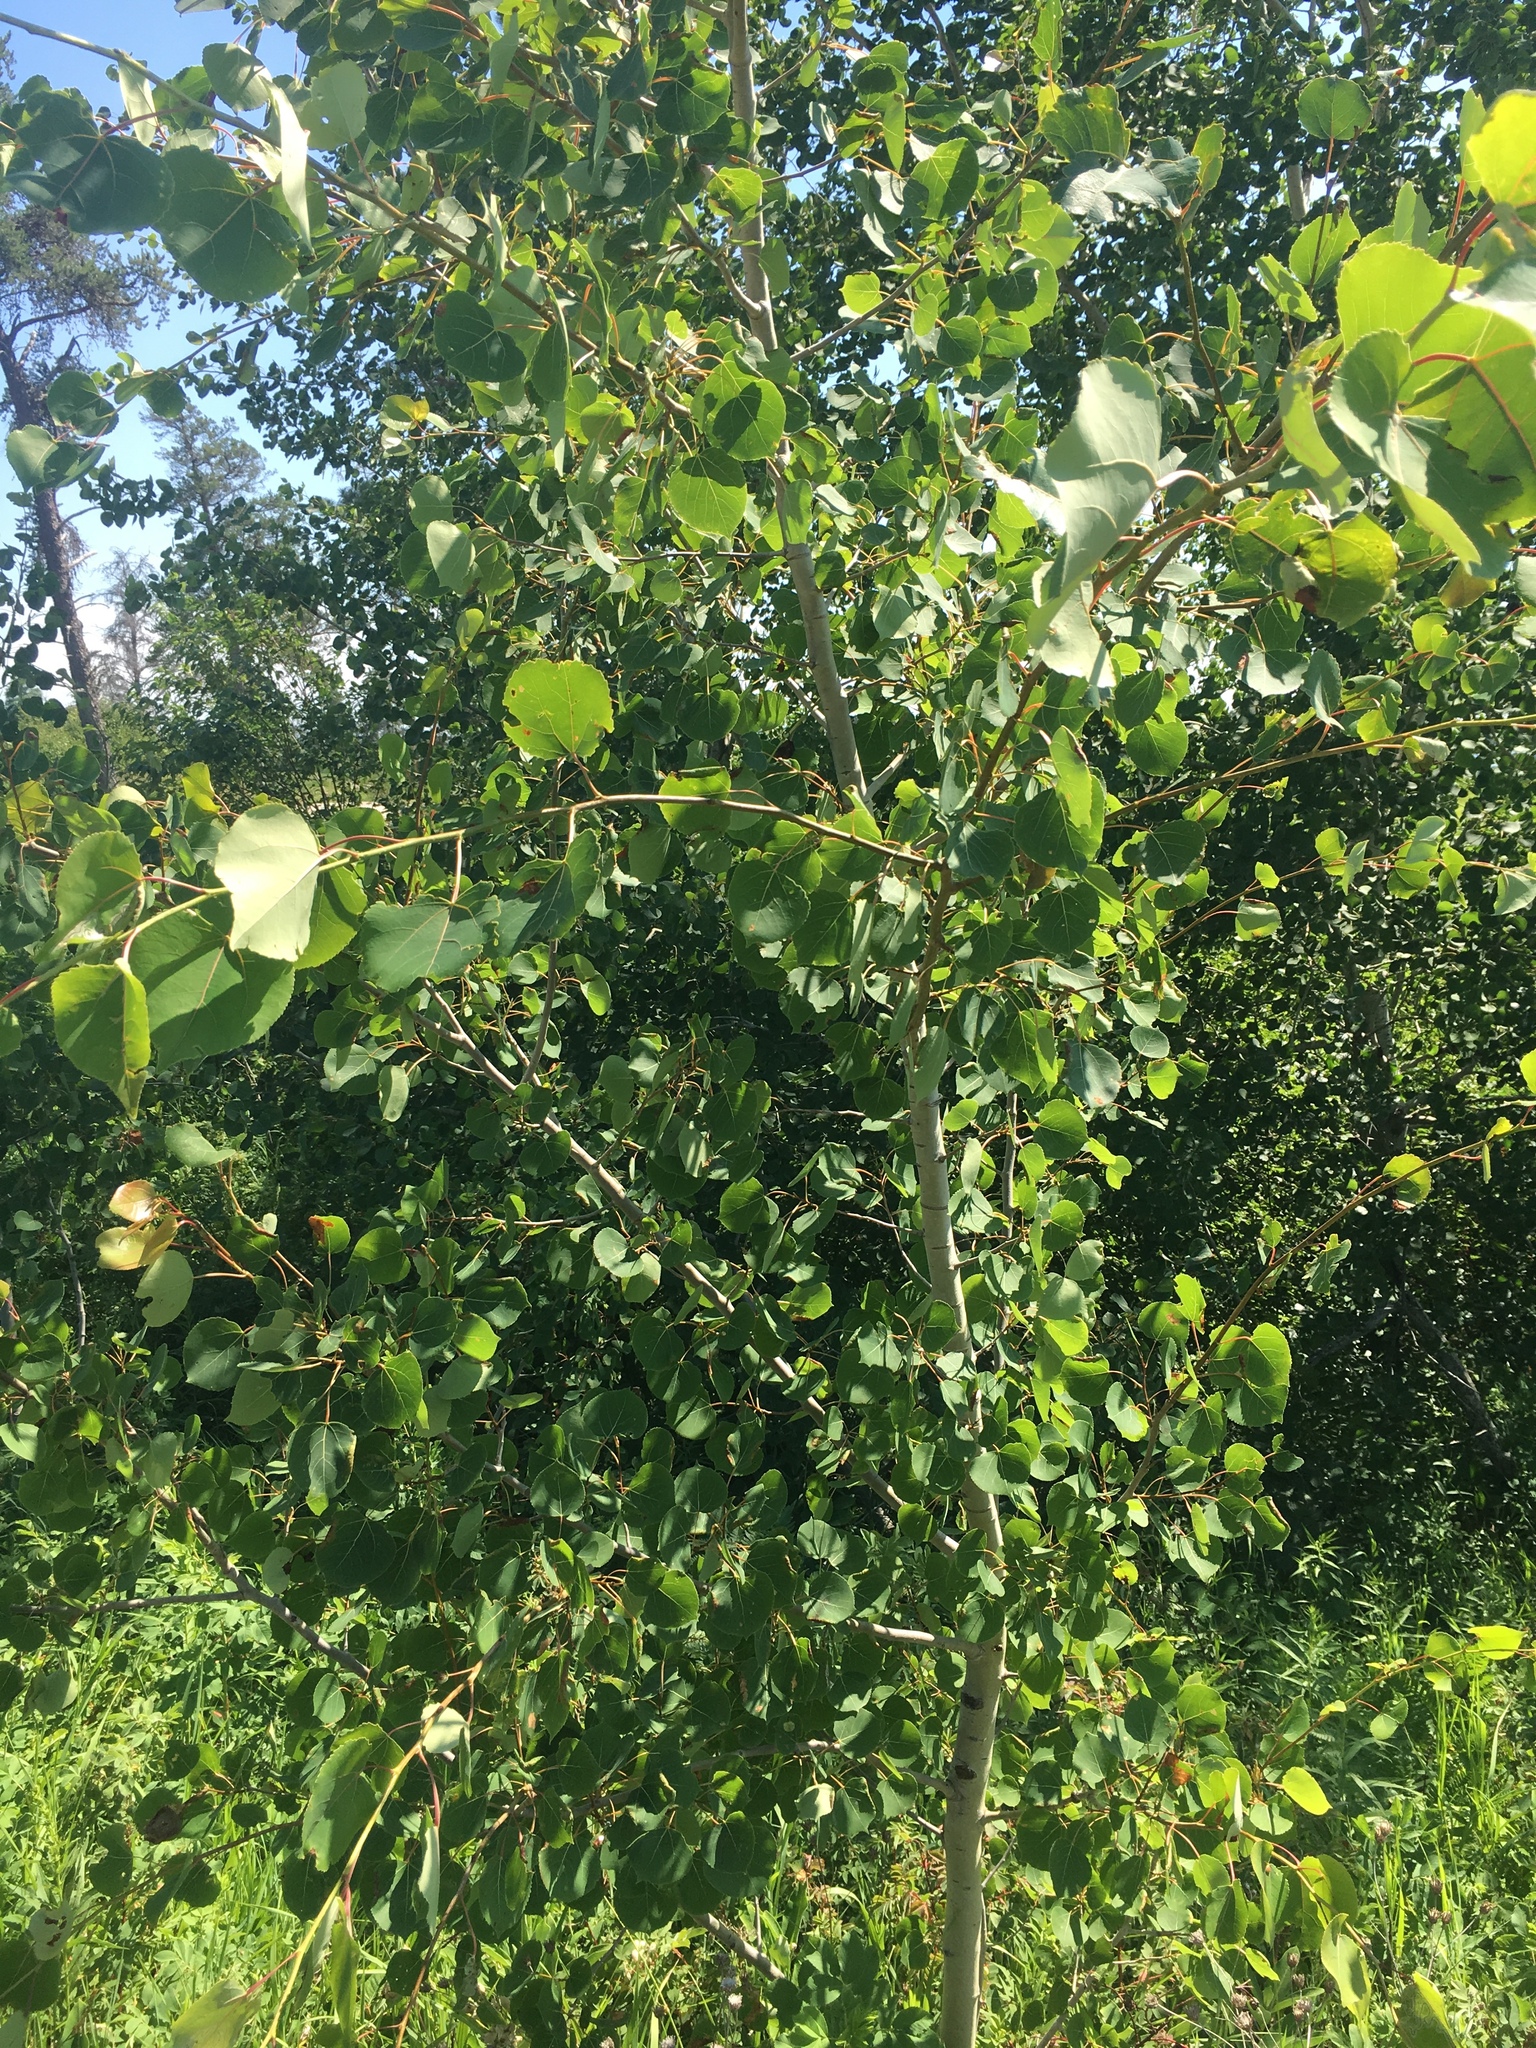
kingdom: Plantae
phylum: Tracheophyta
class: Magnoliopsida
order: Malpighiales
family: Salicaceae
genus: Populus
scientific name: Populus tremuloides
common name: Quaking aspen
